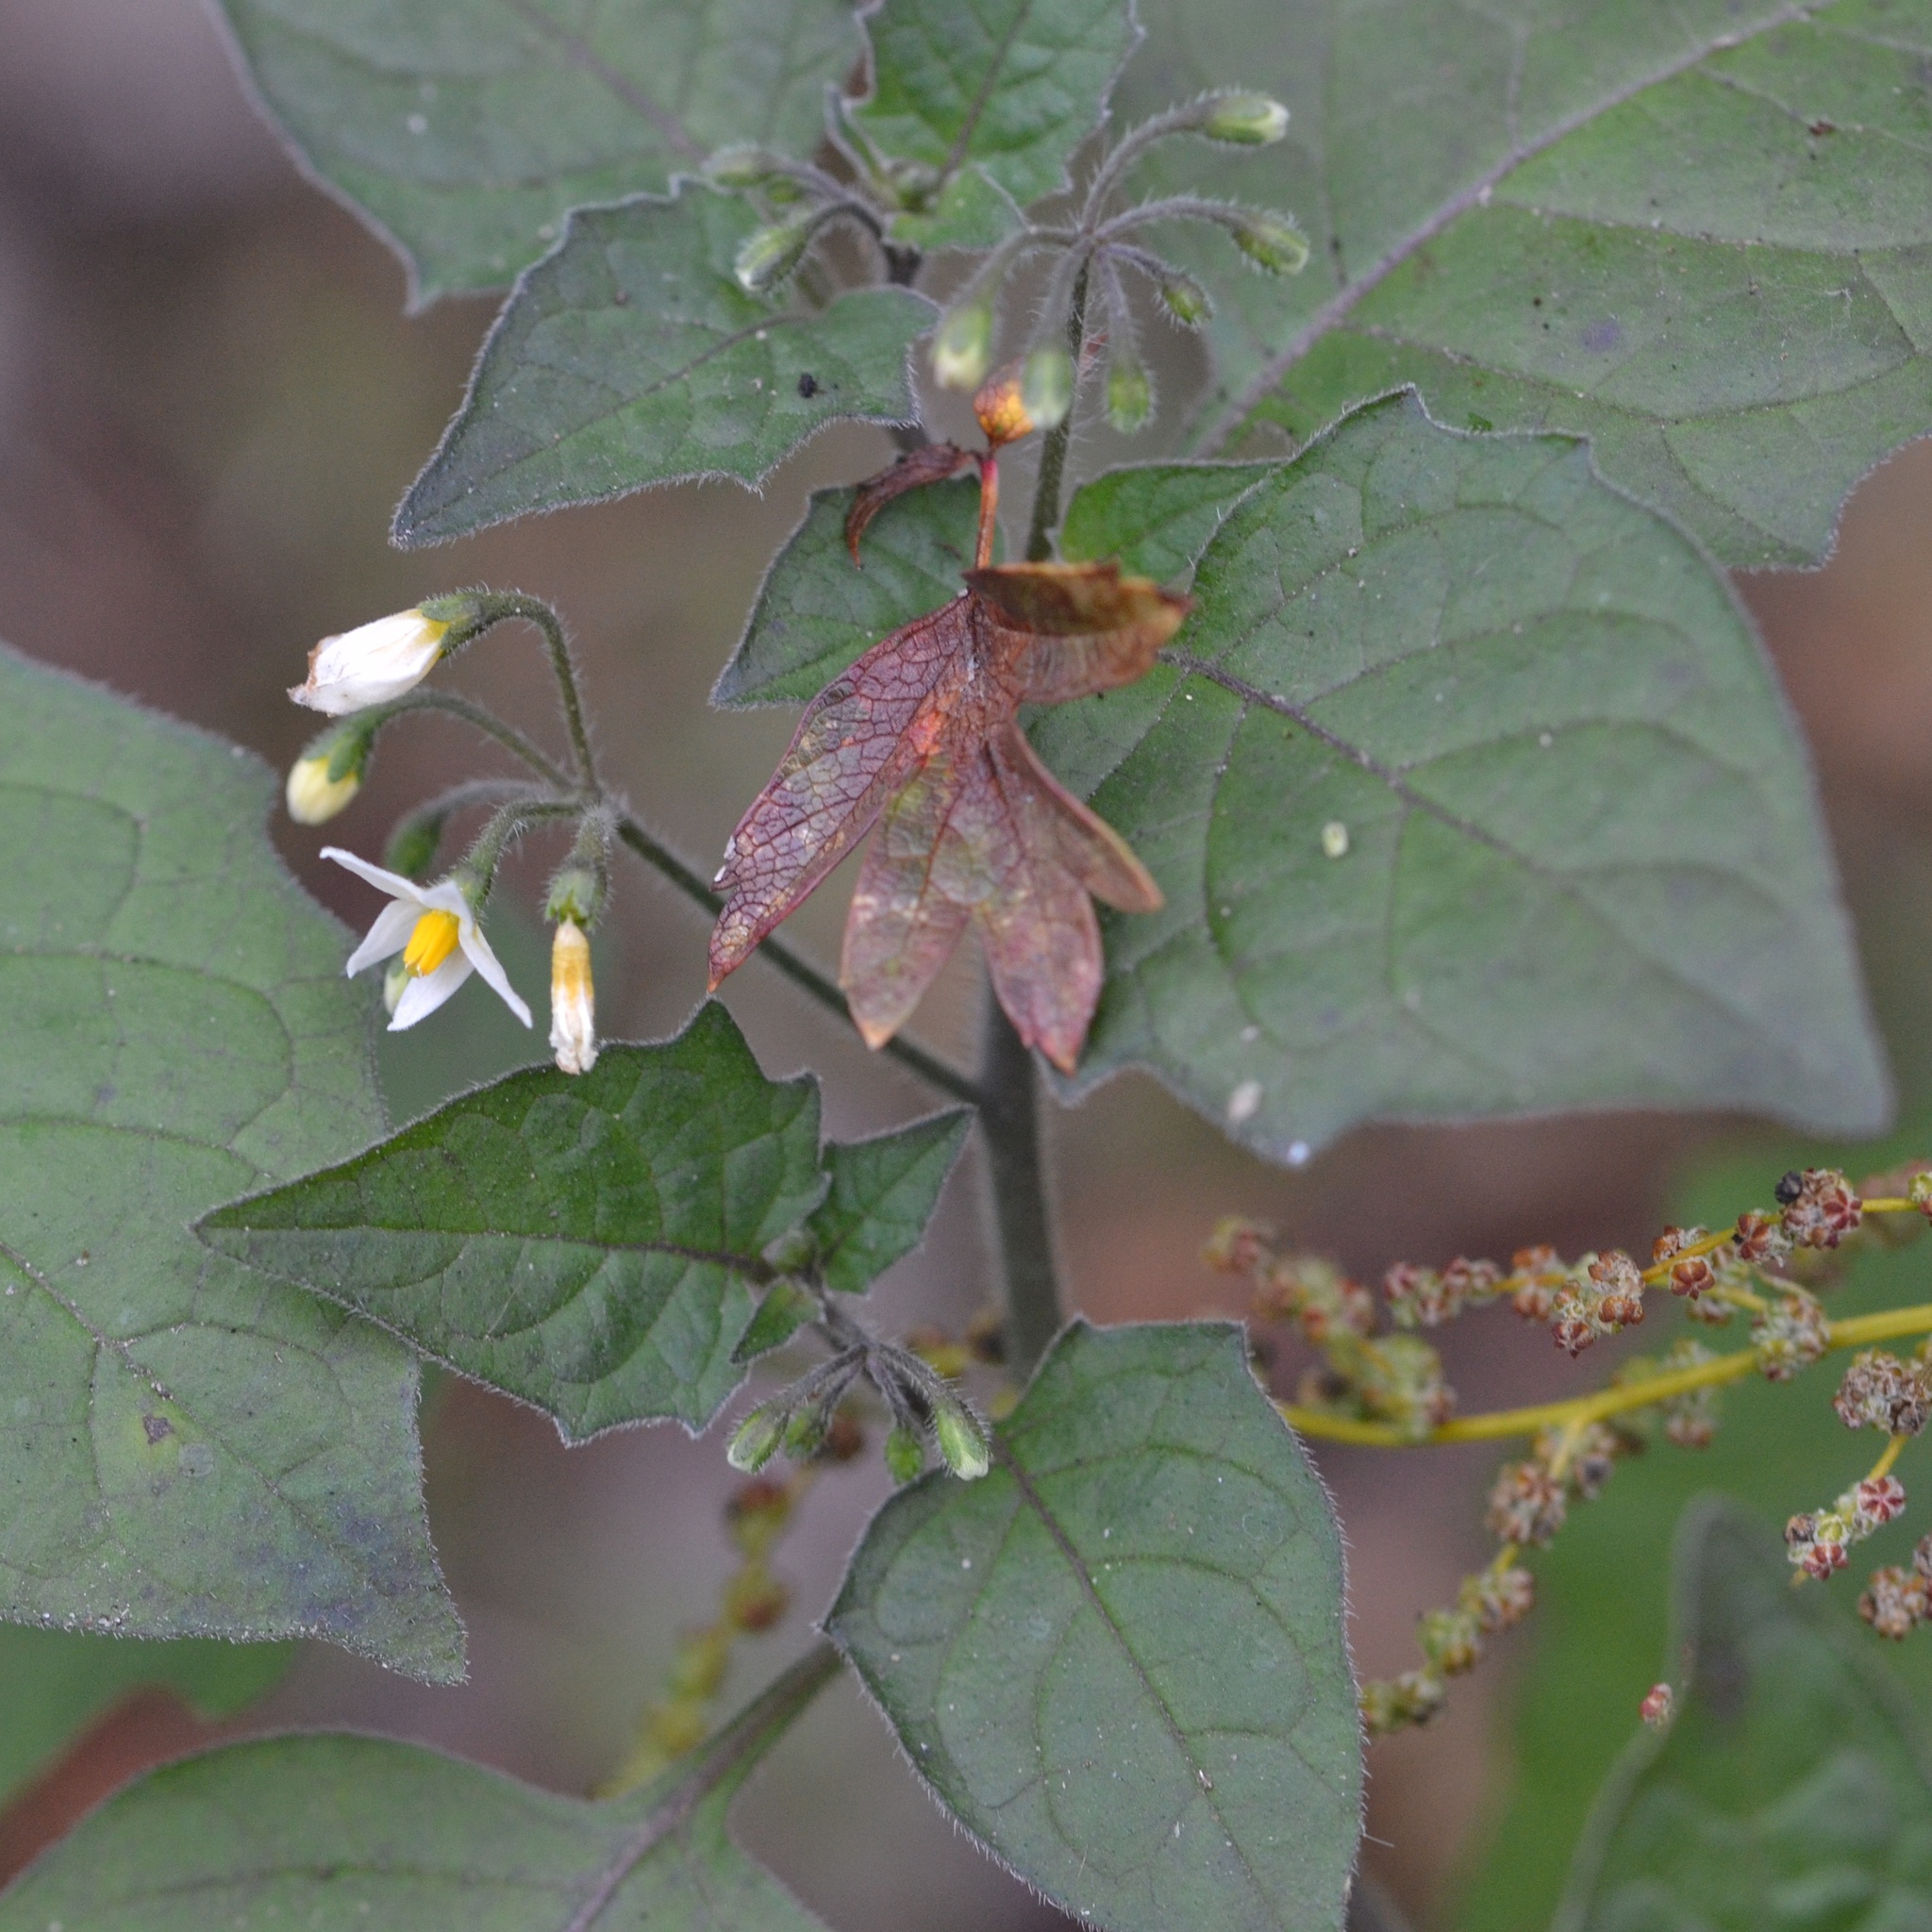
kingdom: Plantae
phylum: Tracheophyta
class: Magnoliopsida
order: Solanales
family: Solanaceae
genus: Solanum
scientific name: Solanum nigrum
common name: Black nightshade
